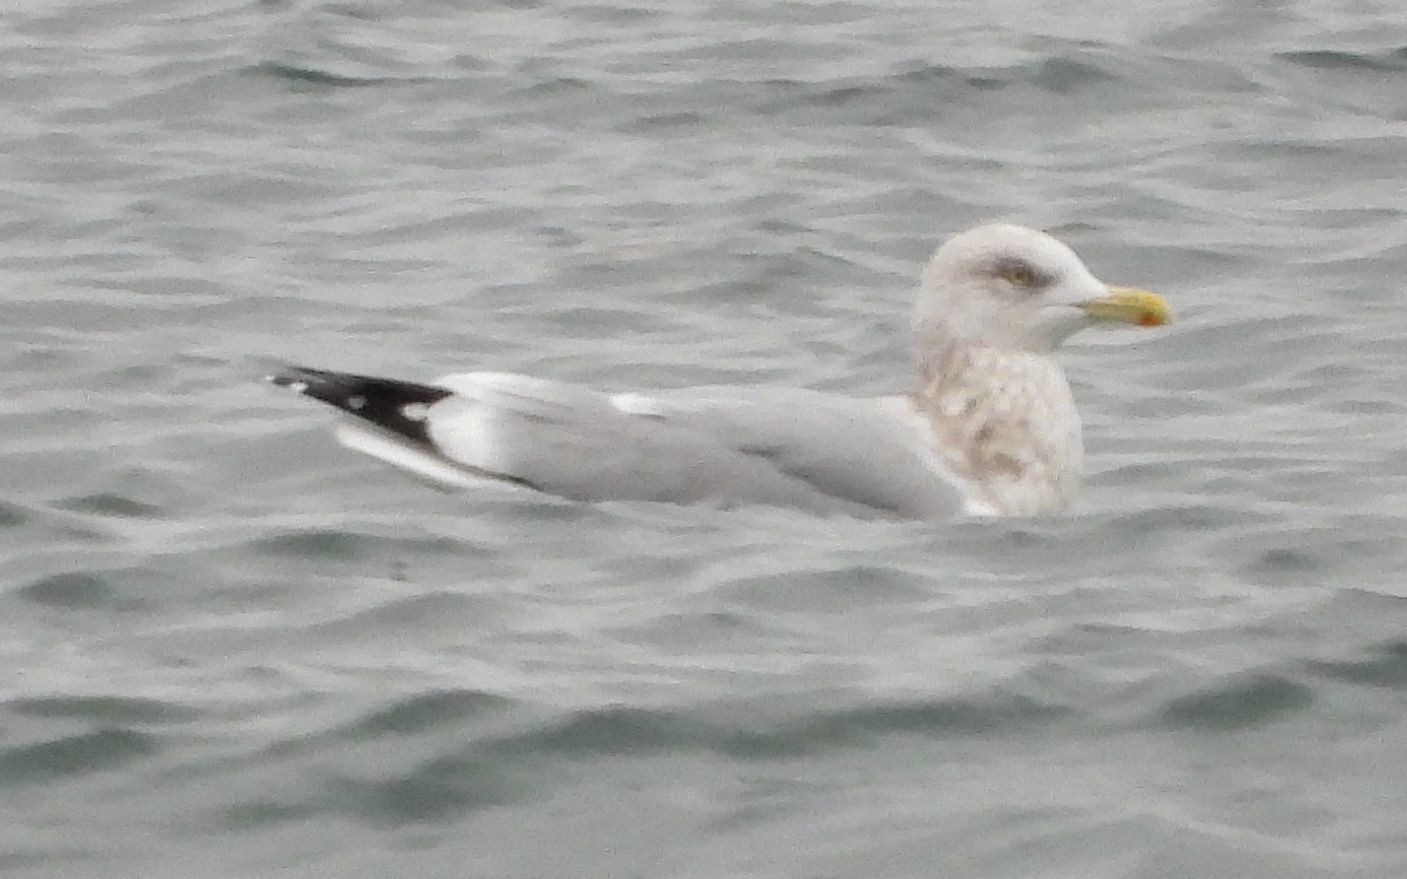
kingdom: Animalia
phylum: Chordata
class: Aves
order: Charadriiformes
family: Laridae
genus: Larus
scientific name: Larus argentatus
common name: Herring gull
